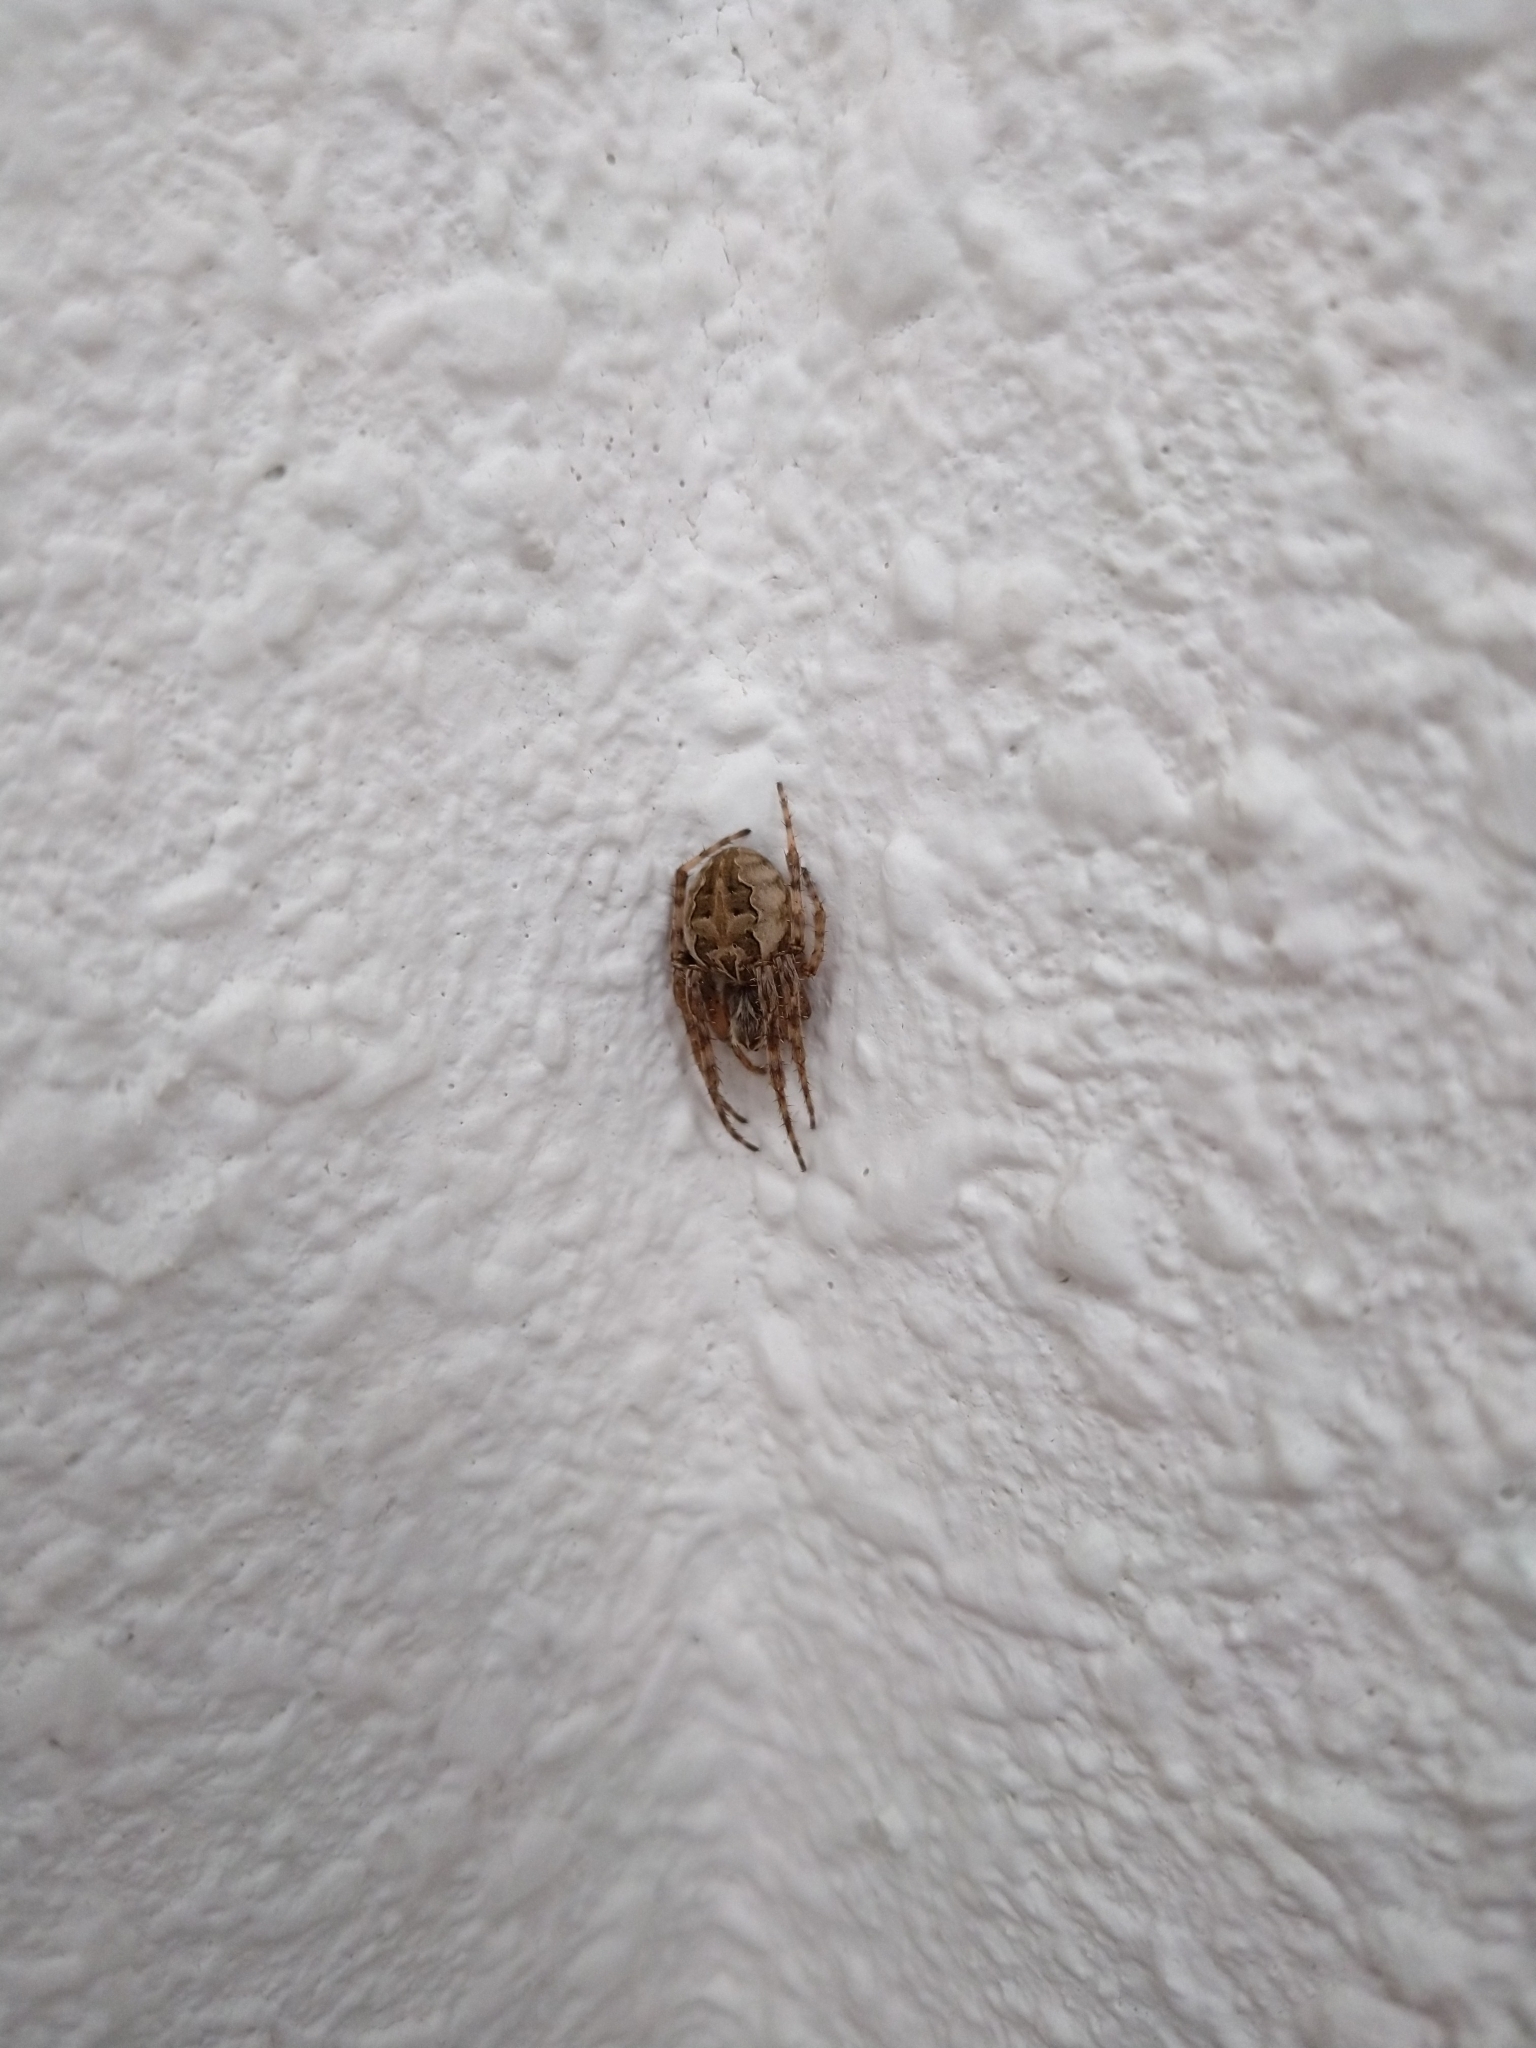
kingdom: Animalia
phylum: Arthropoda
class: Arachnida
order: Araneae
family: Araneidae
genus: Larinioides
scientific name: Larinioides sclopetarius
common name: Bridge orbweaver
